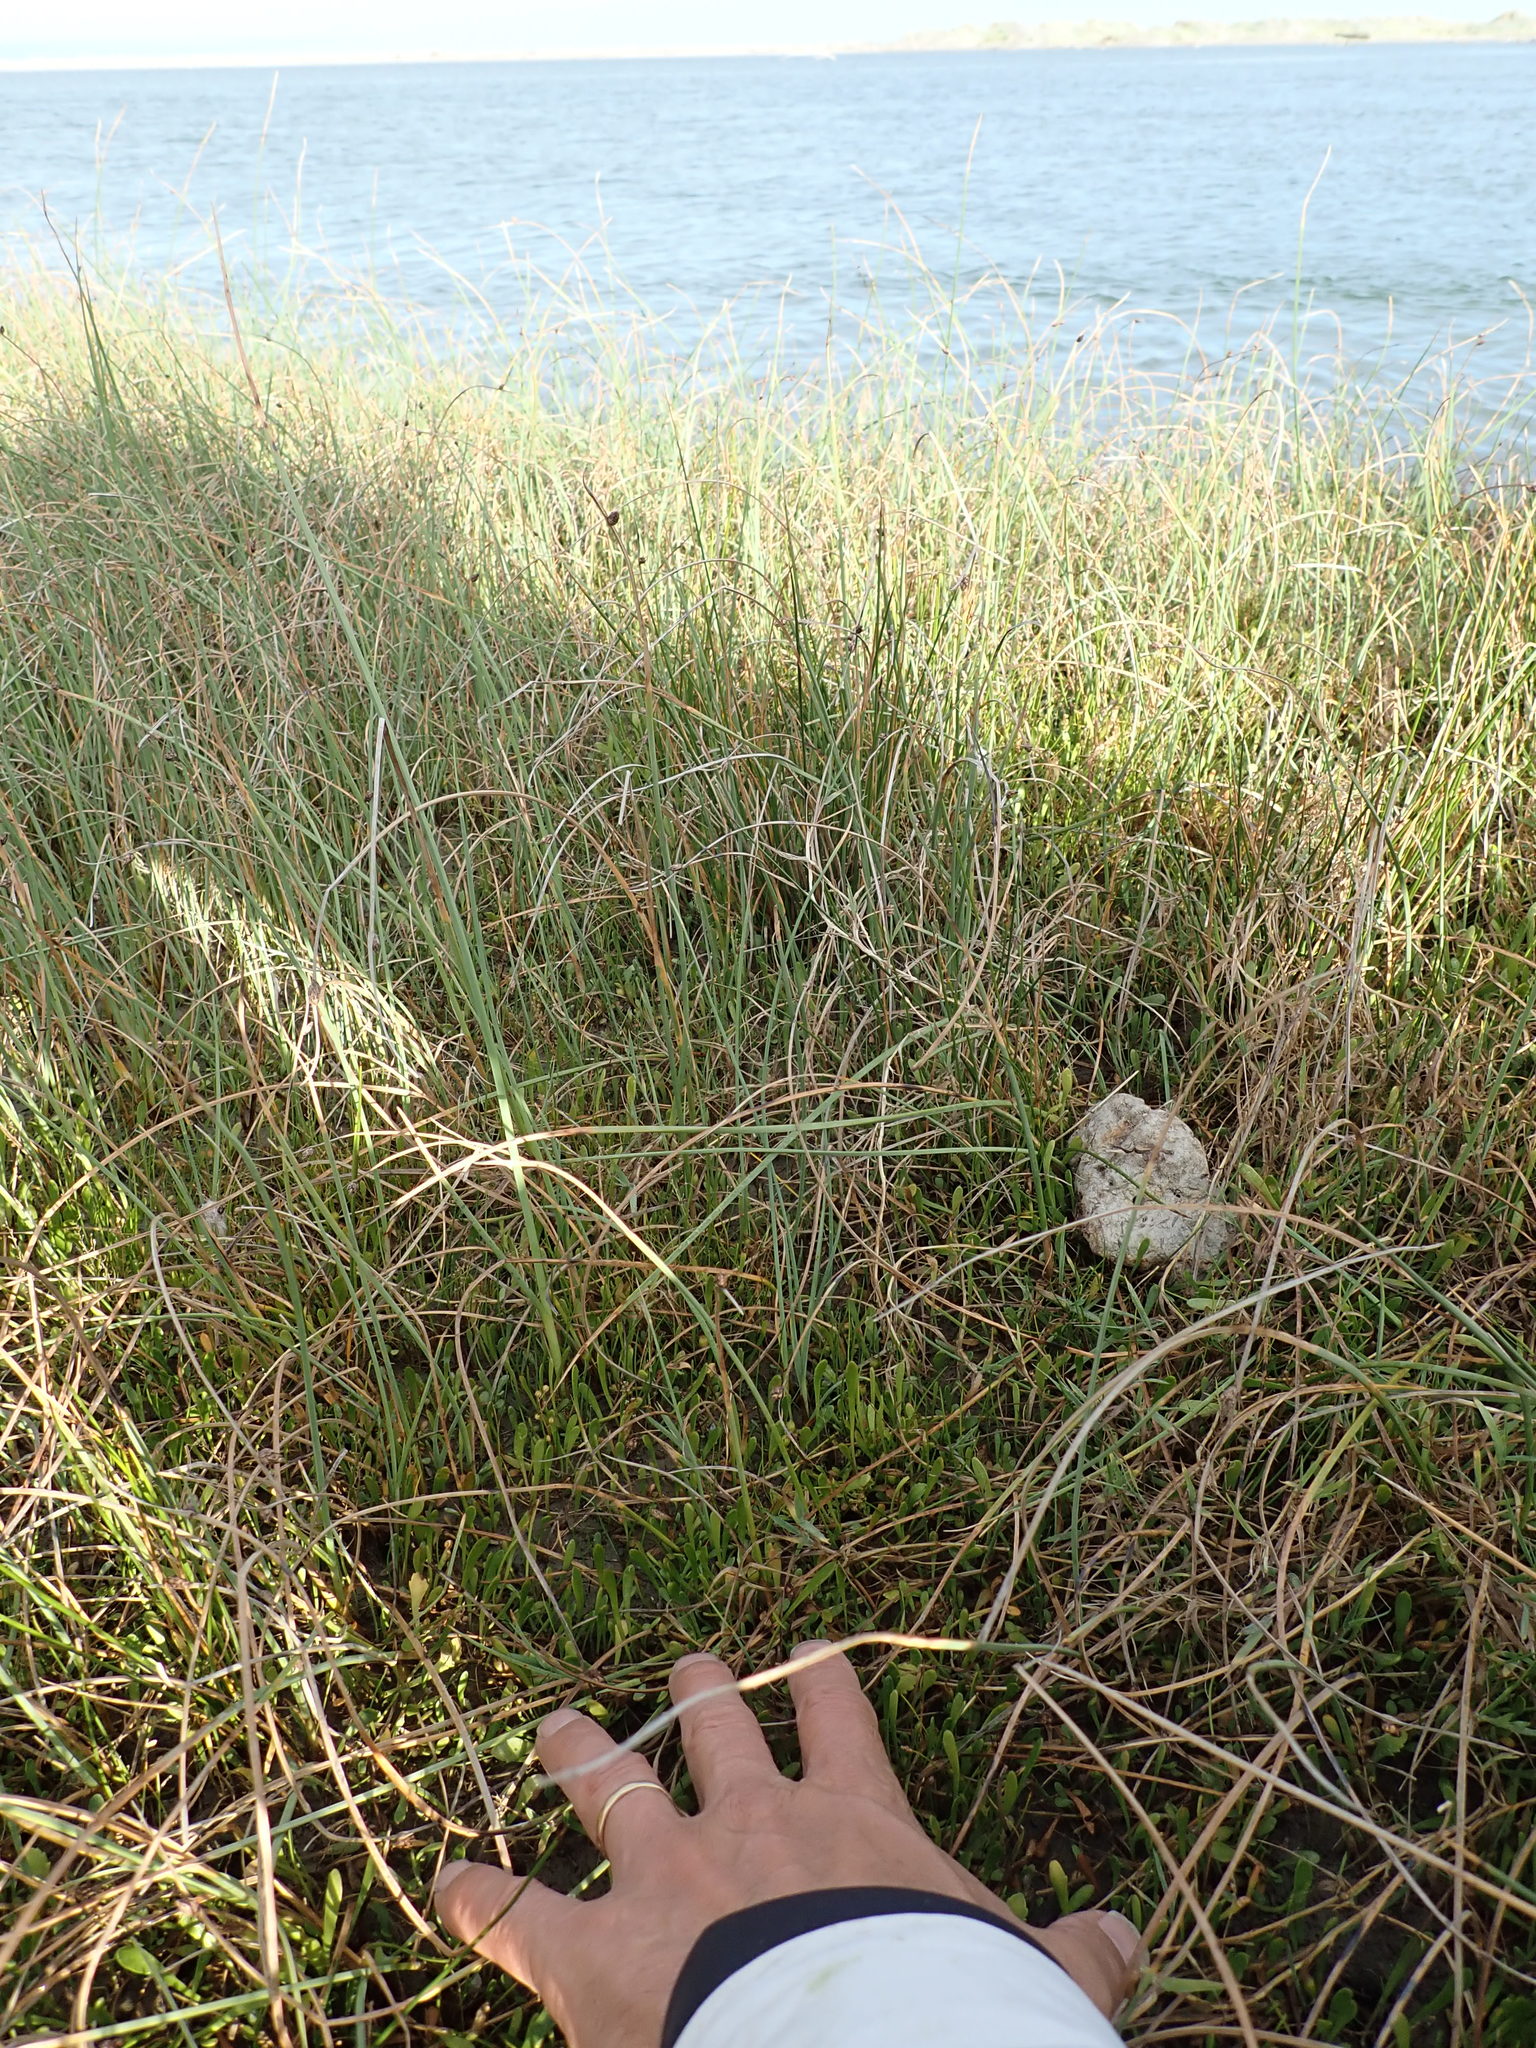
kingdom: Plantae
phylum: Tracheophyta
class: Liliopsida
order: Alismatales
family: Juncaginaceae
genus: Triglochin
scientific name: Triglochin striata
